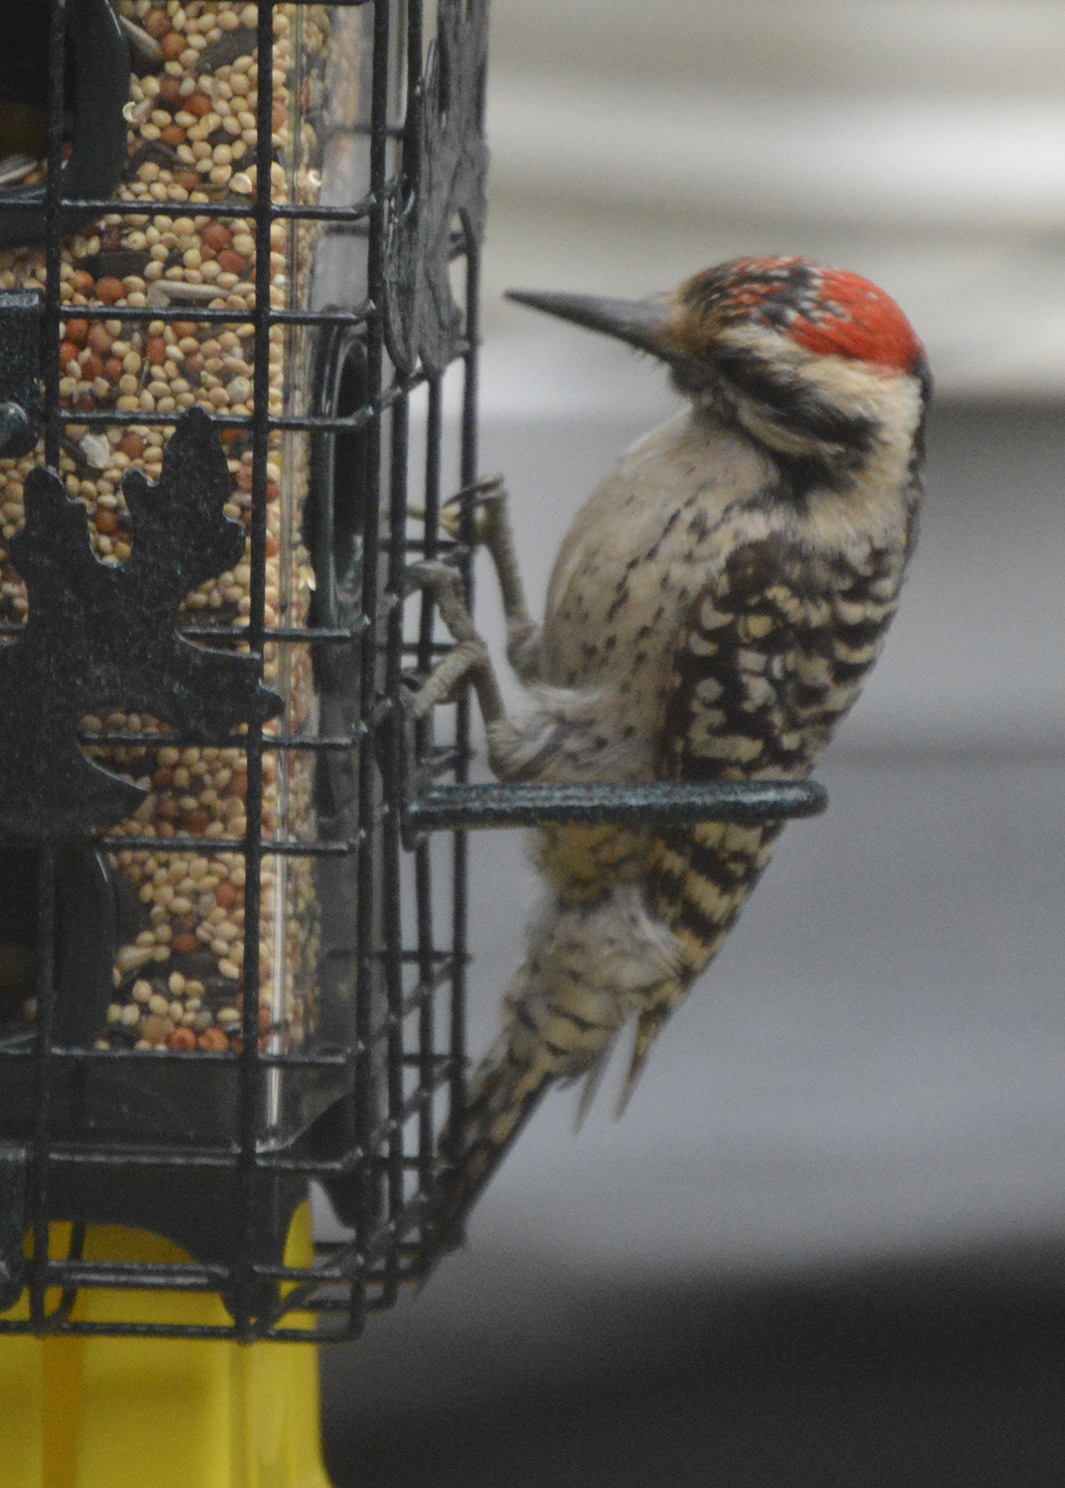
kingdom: Animalia
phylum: Chordata
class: Aves
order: Piciformes
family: Picidae
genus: Dryobates
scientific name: Dryobates scalaris
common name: Ladder-backed woodpecker
